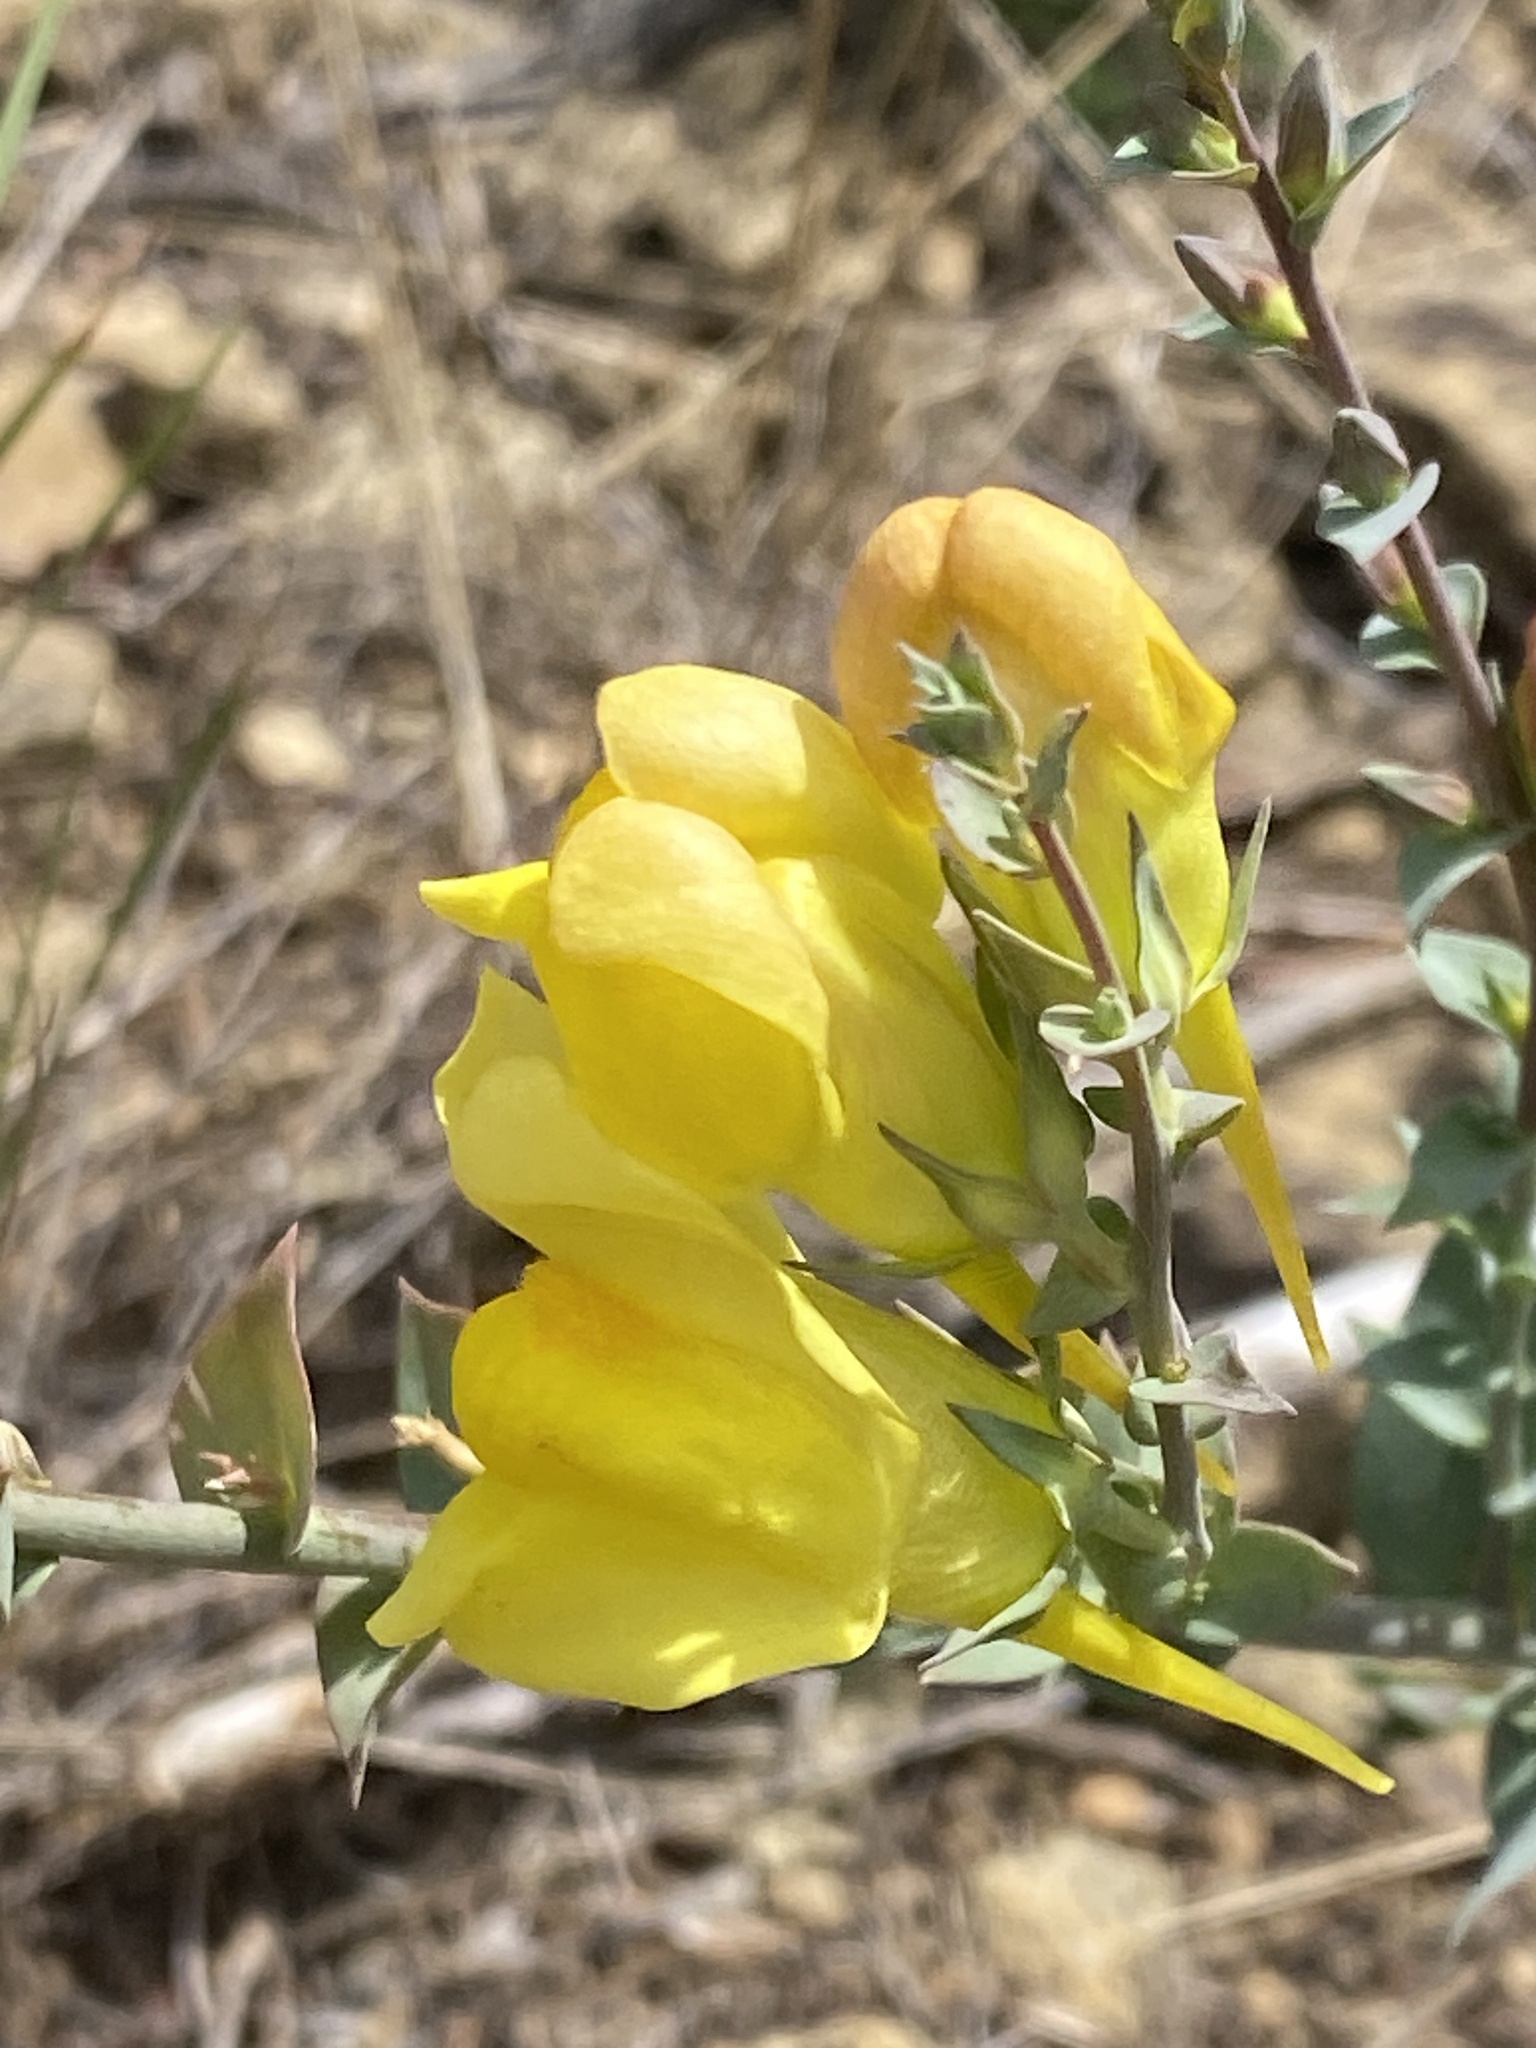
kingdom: Plantae
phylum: Tracheophyta
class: Magnoliopsida
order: Lamiales
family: Plantaginaceae
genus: Linaria
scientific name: Linaria dalmatica
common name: Dalmatian toadflax
